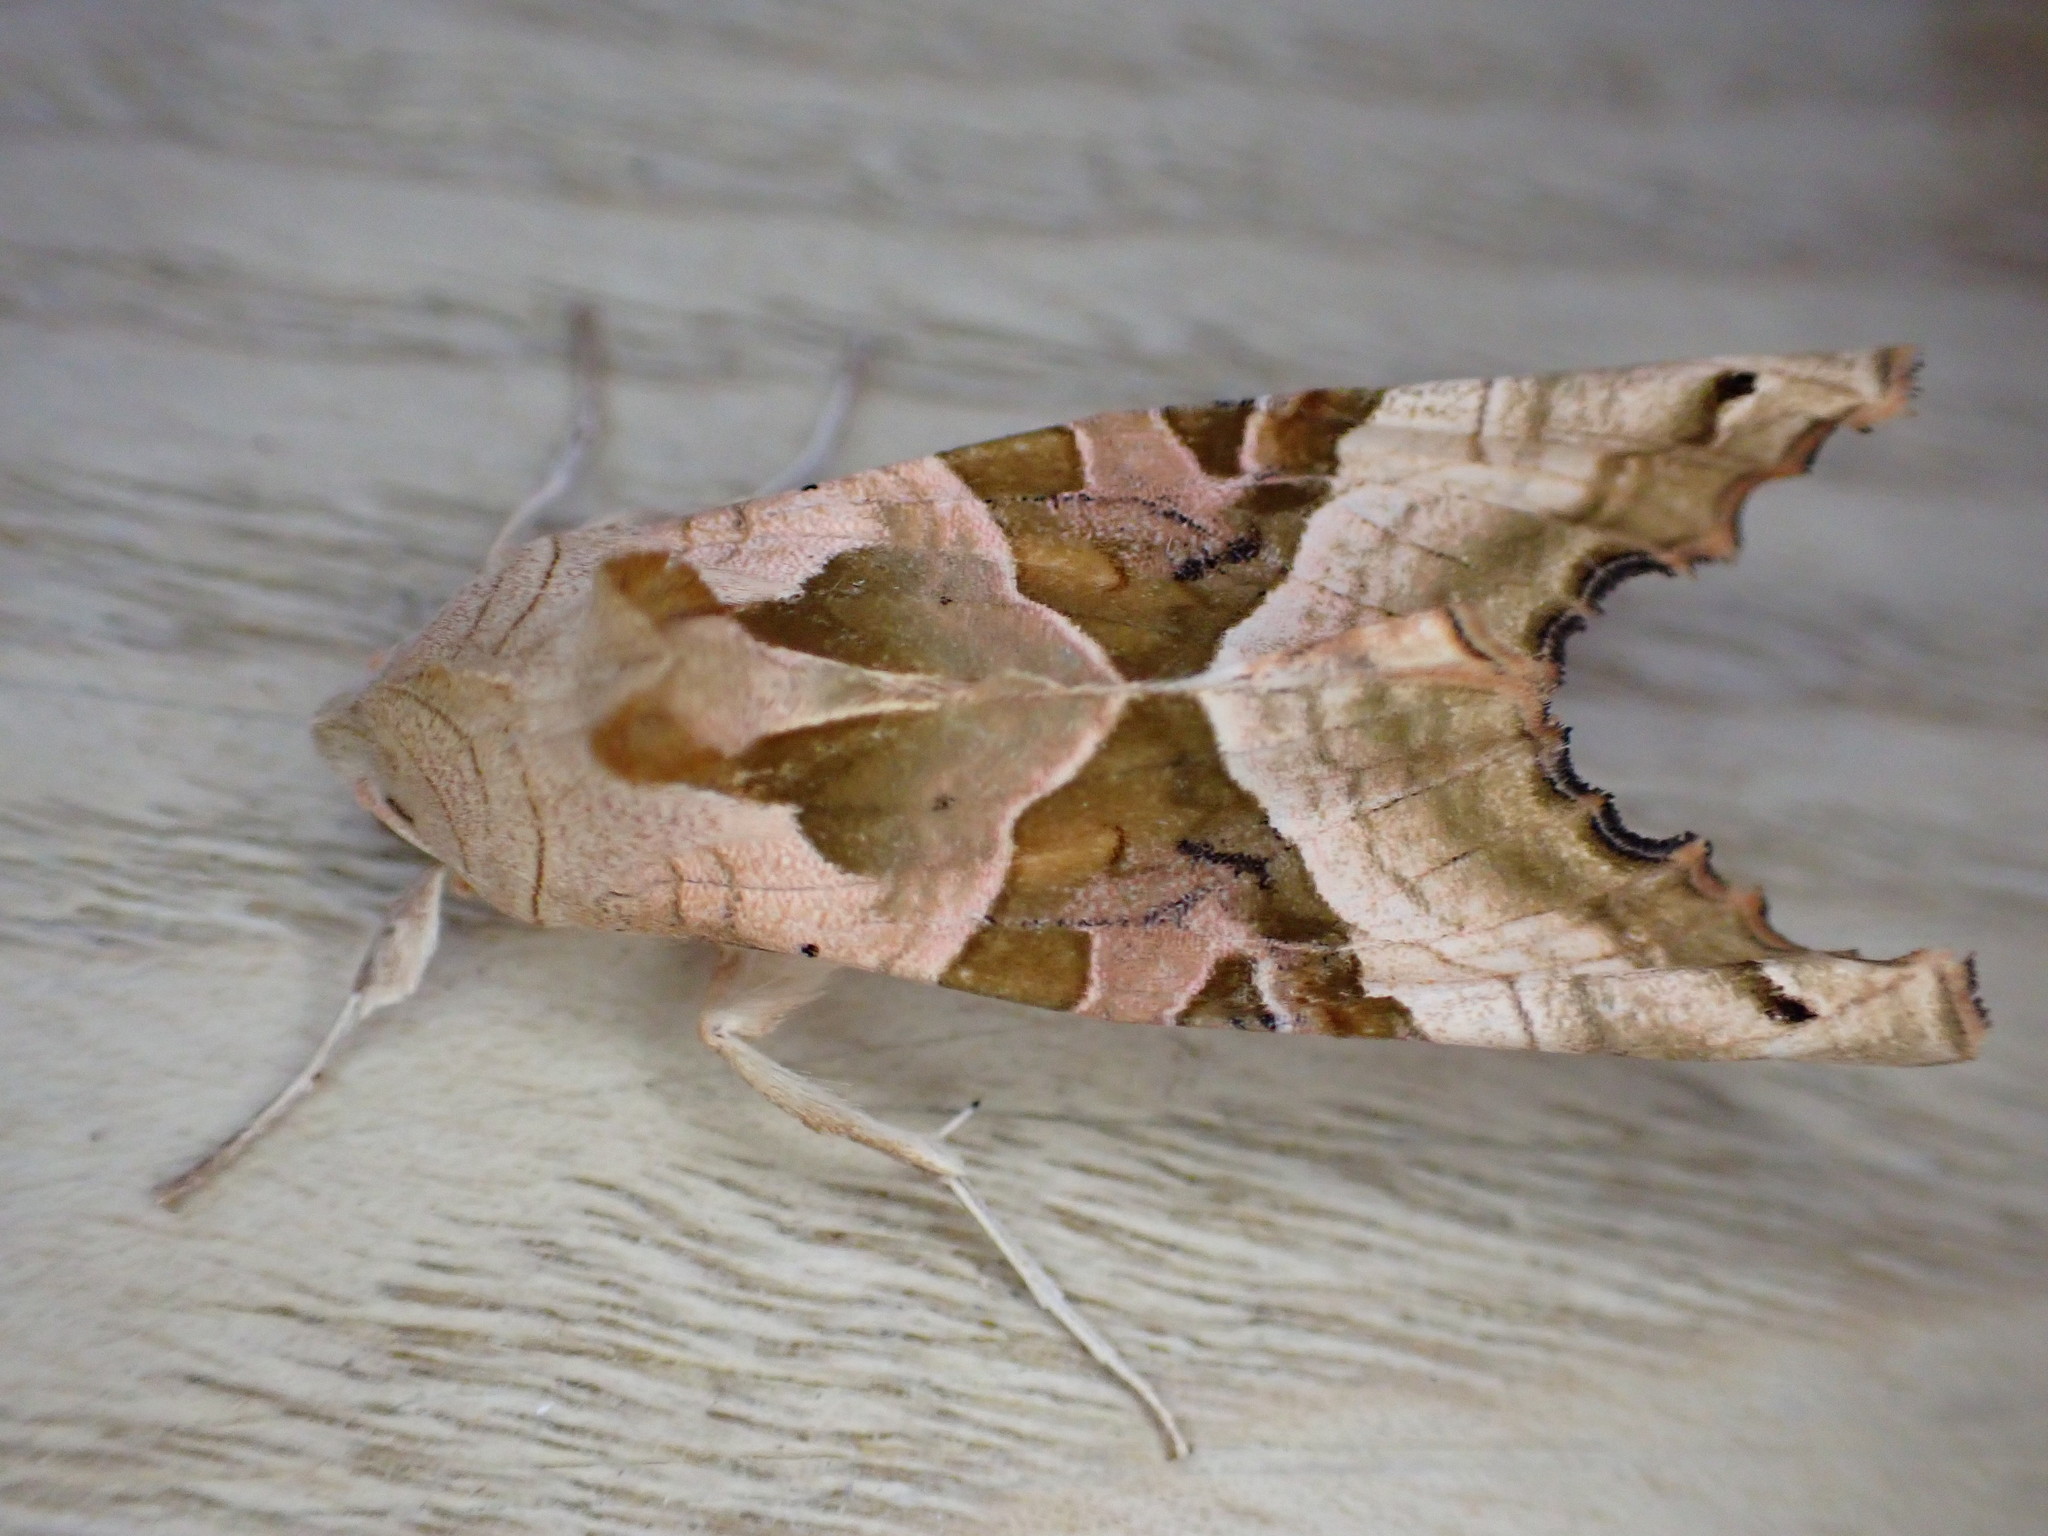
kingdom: Animalia
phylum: Arthropoda
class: Insecta
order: Lepidoptera
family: Noctuidae
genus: Phlogophora
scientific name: Phlogophora meticulosa
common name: Angle shades
